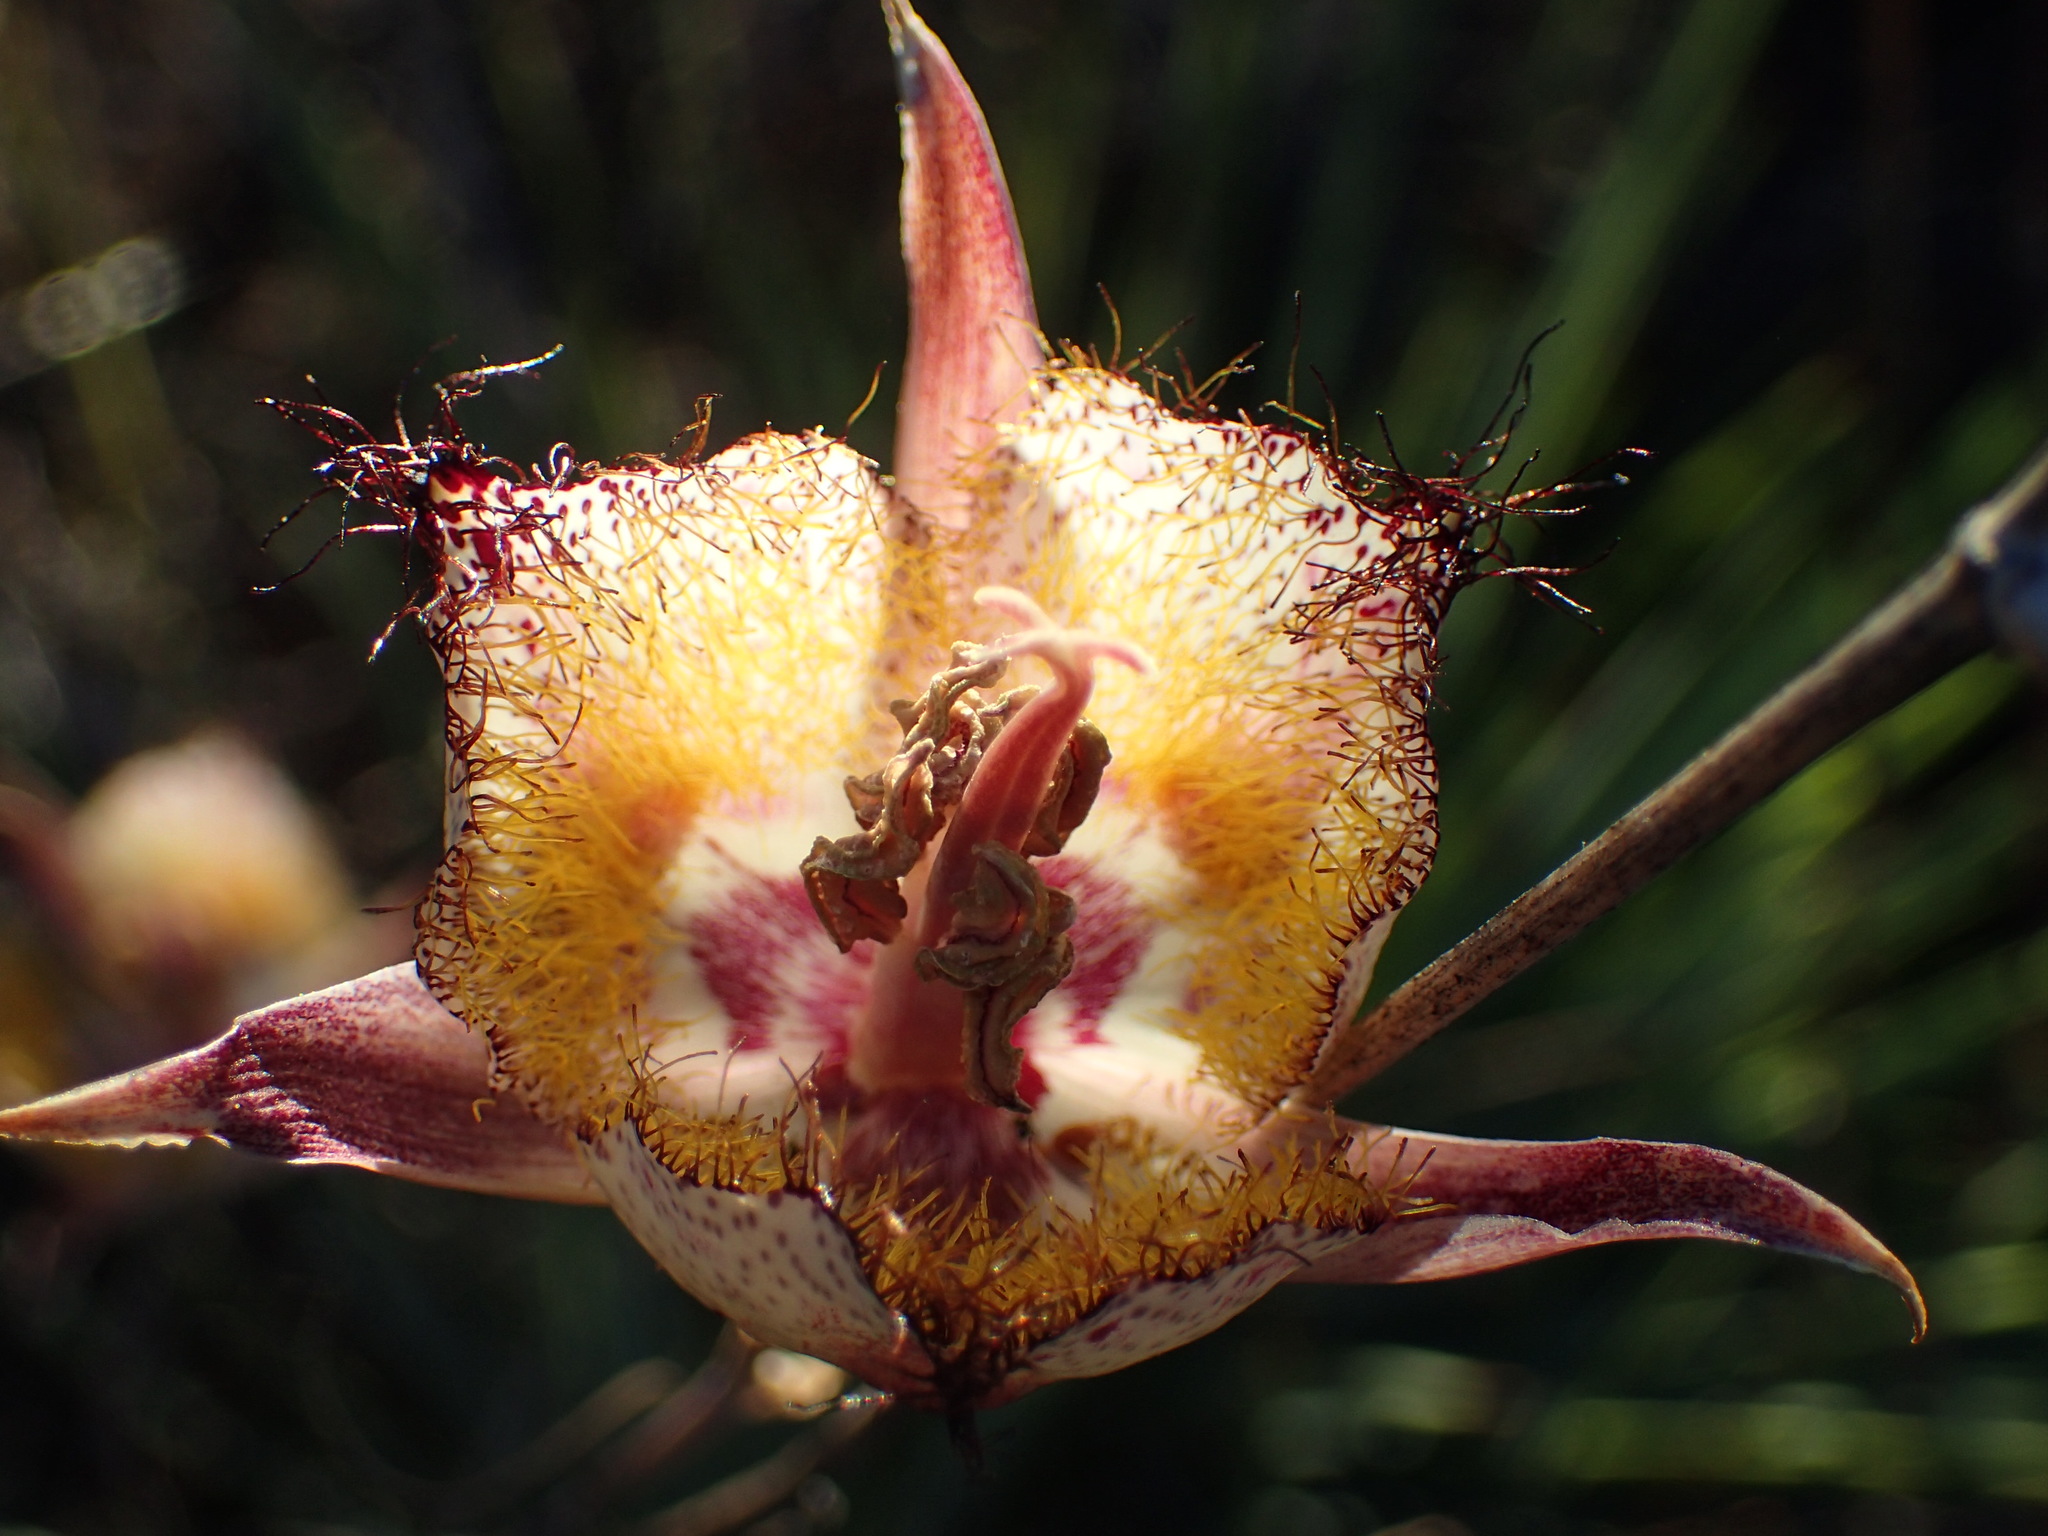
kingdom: Plantae
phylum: Tracheophyta
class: Liliopsida
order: Liliales
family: Liliaceae
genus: Calochortus
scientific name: Calochortus fimbriatus
